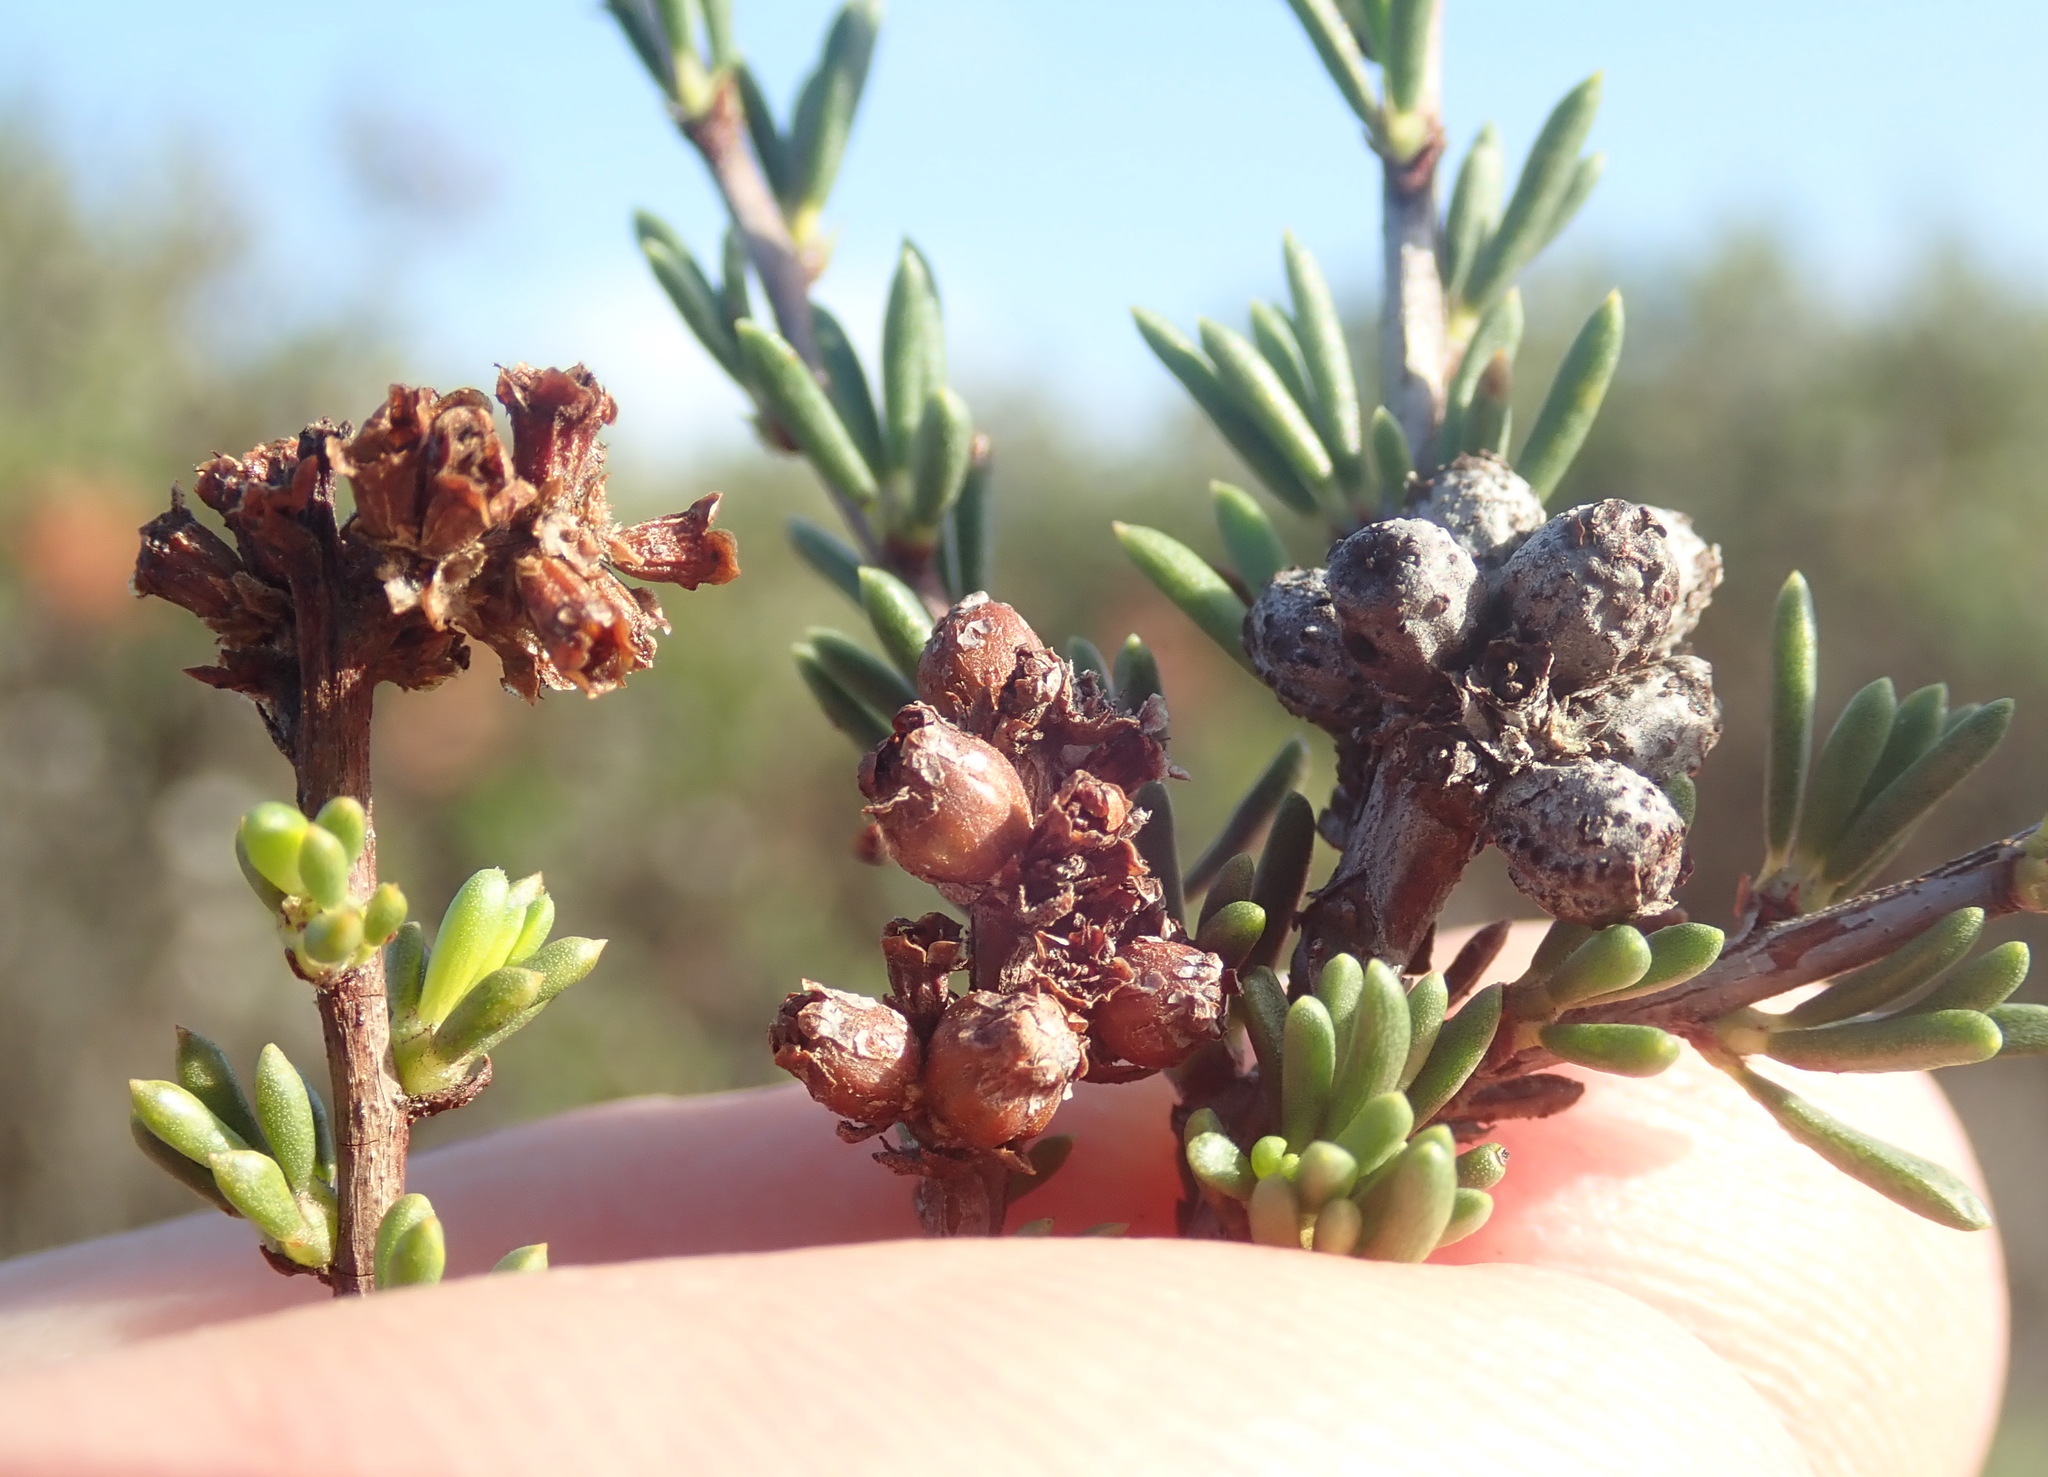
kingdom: Animalia
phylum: Arthropoda
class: Insecta
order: Diptera
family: Cecidomyiidae
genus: Asphondylia
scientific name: Asphondylia adenostoma
